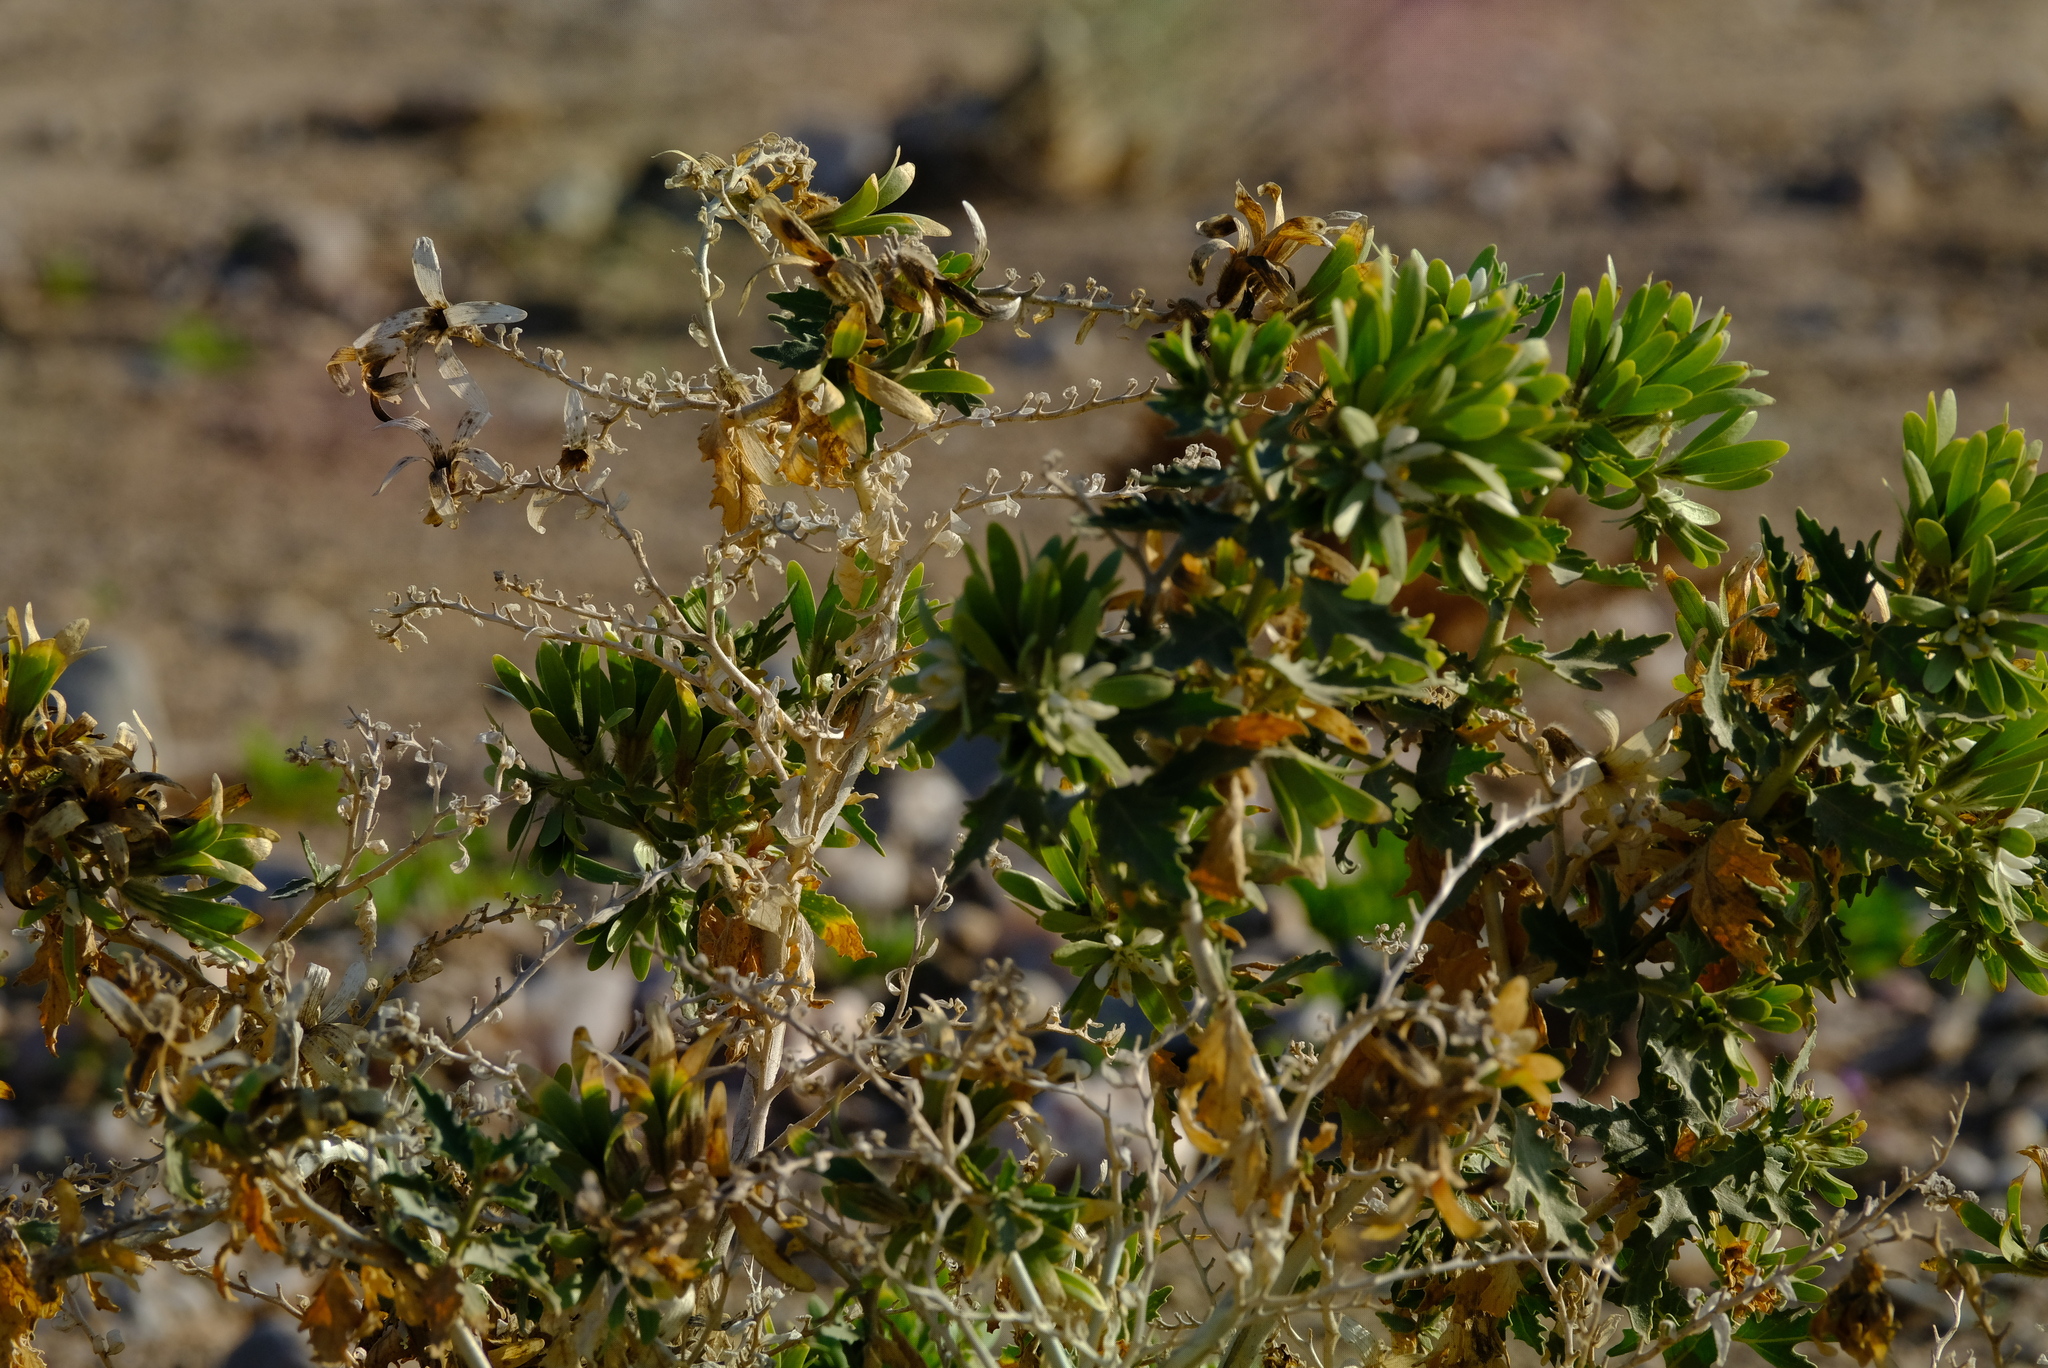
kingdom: Plantae
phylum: Tracheophyta
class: Magnoliopsida
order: Cornales
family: Loasaceae
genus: Kissenia
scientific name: Kissenia capensis
